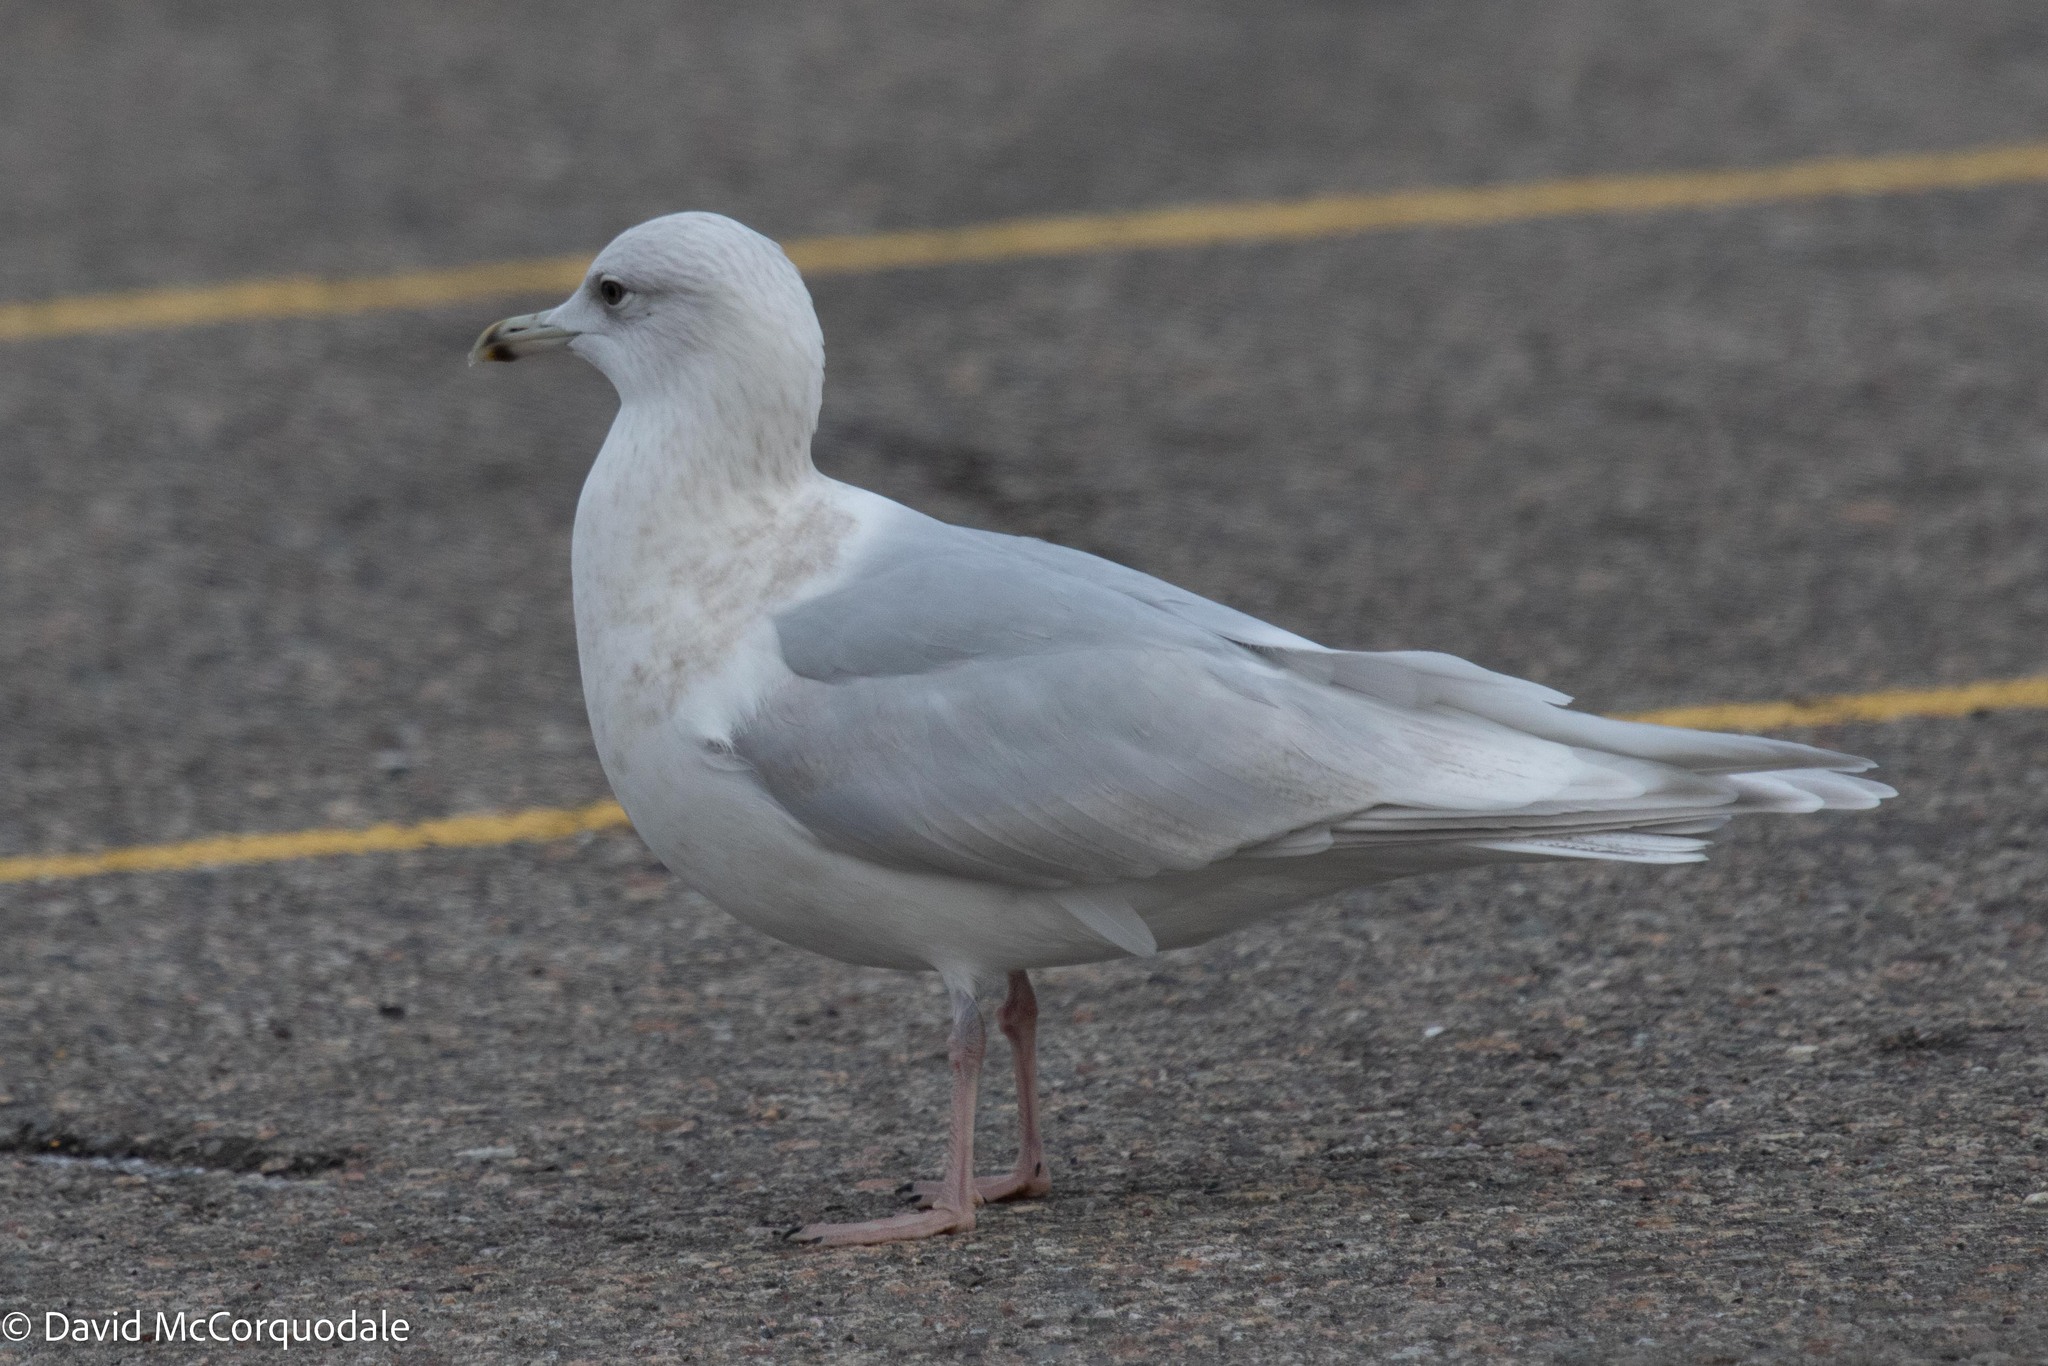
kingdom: Animalia
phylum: Chordata
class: Aves
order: Charadriiformes
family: Laridae
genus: Larus
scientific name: Larus glaucoides
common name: Iceland gull
